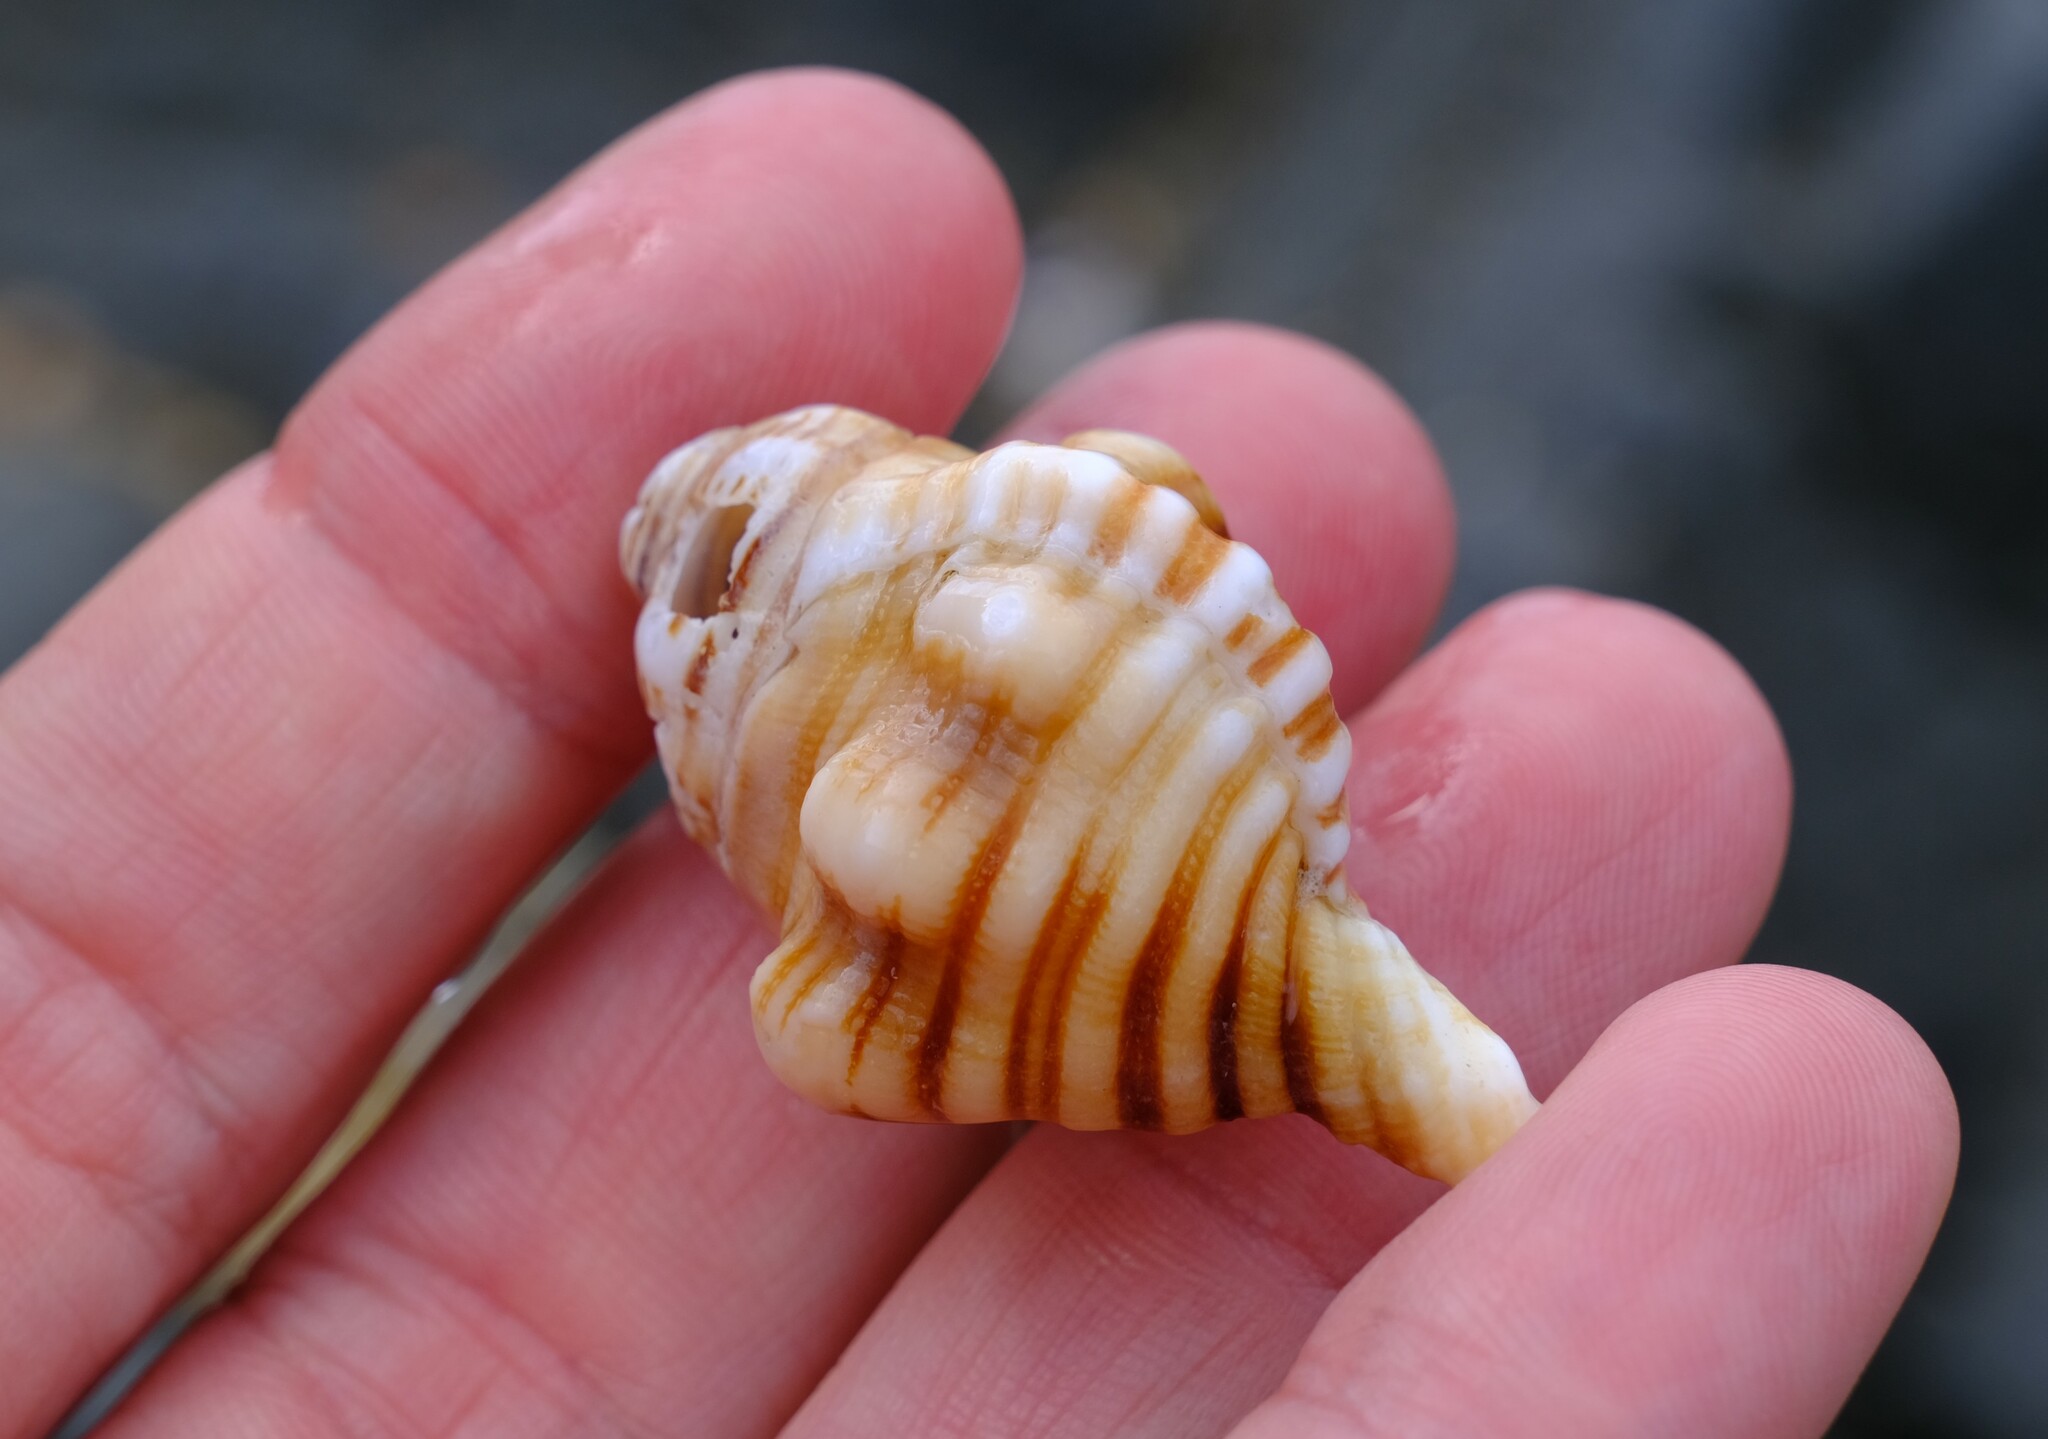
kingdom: Animalia
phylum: Mollusca
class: Gastropoda
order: Littorinimorpha
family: Cymatiidae
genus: Cabestana
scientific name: Cabestana spengleri
